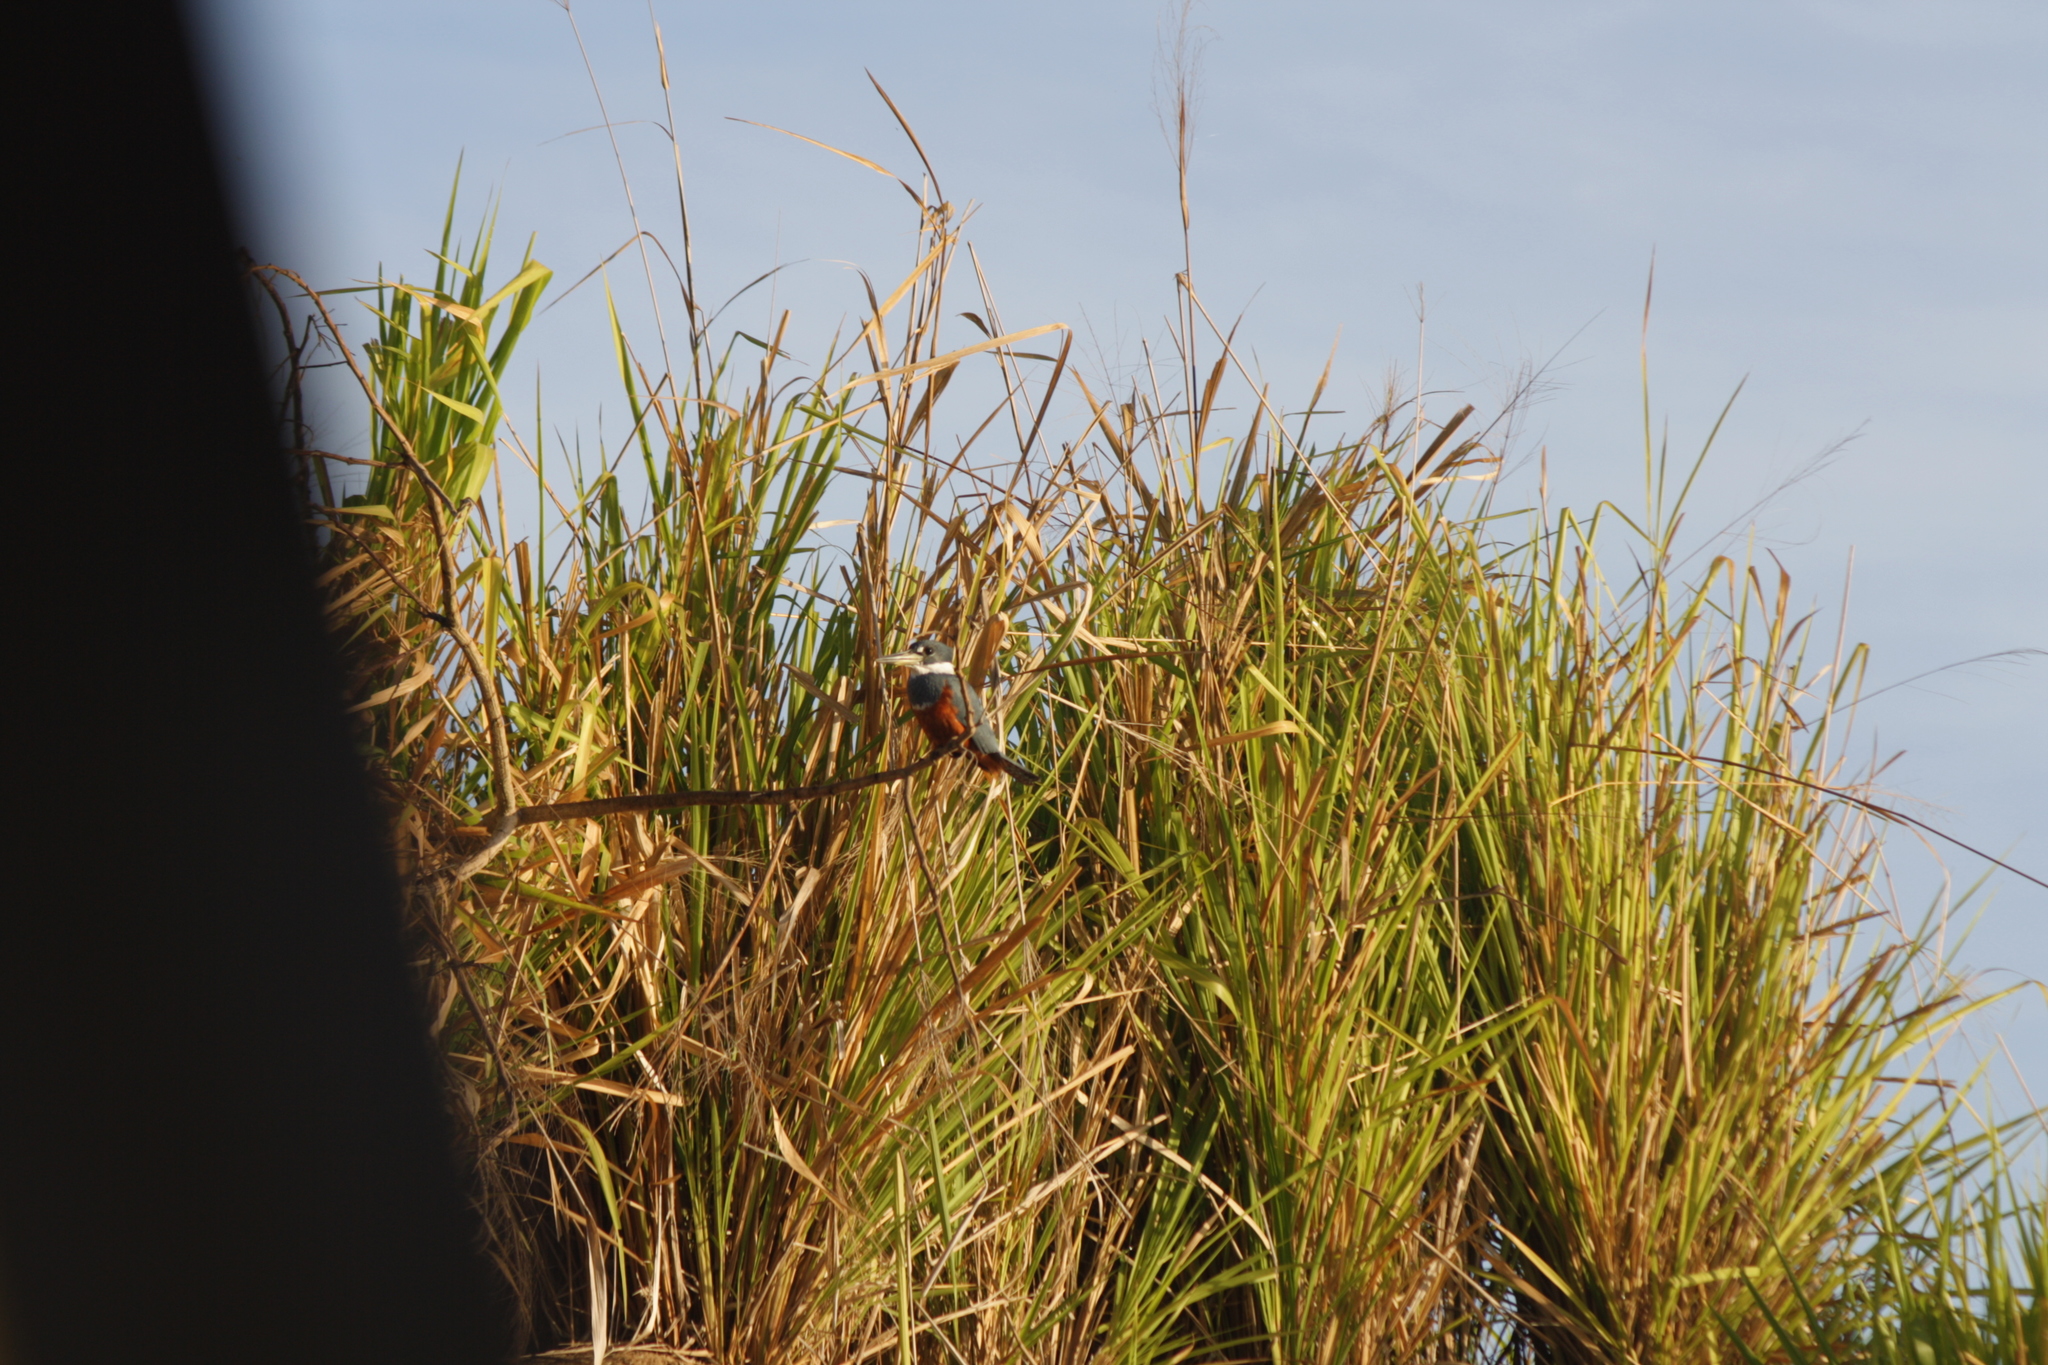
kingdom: Animalia
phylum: Chordata
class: Aves
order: Coraciiformes
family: Alcedinidae
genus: Megaceryle
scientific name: Megaceryle torquata
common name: Ringed kingfisher
